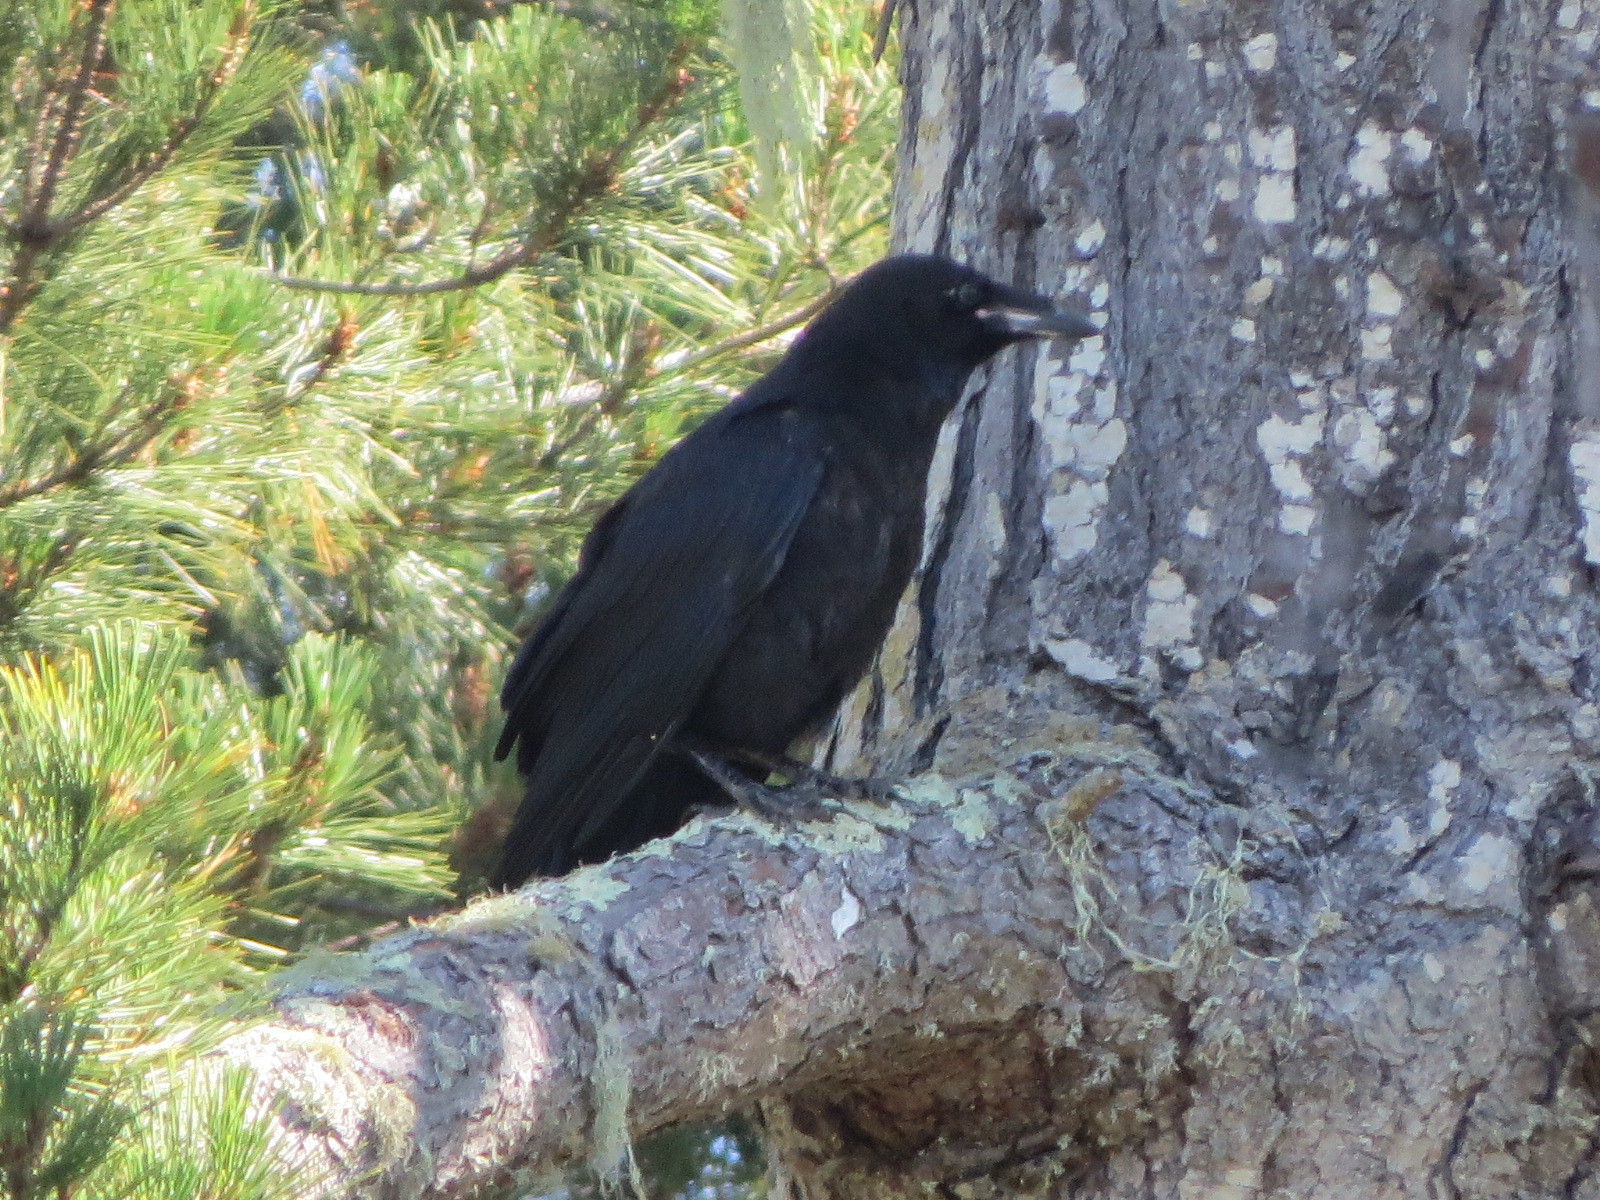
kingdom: Animalia
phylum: Chordata
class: Aves
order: Passeriformes
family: Corvidae
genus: Corvus
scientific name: Corvus corax
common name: Common raven
